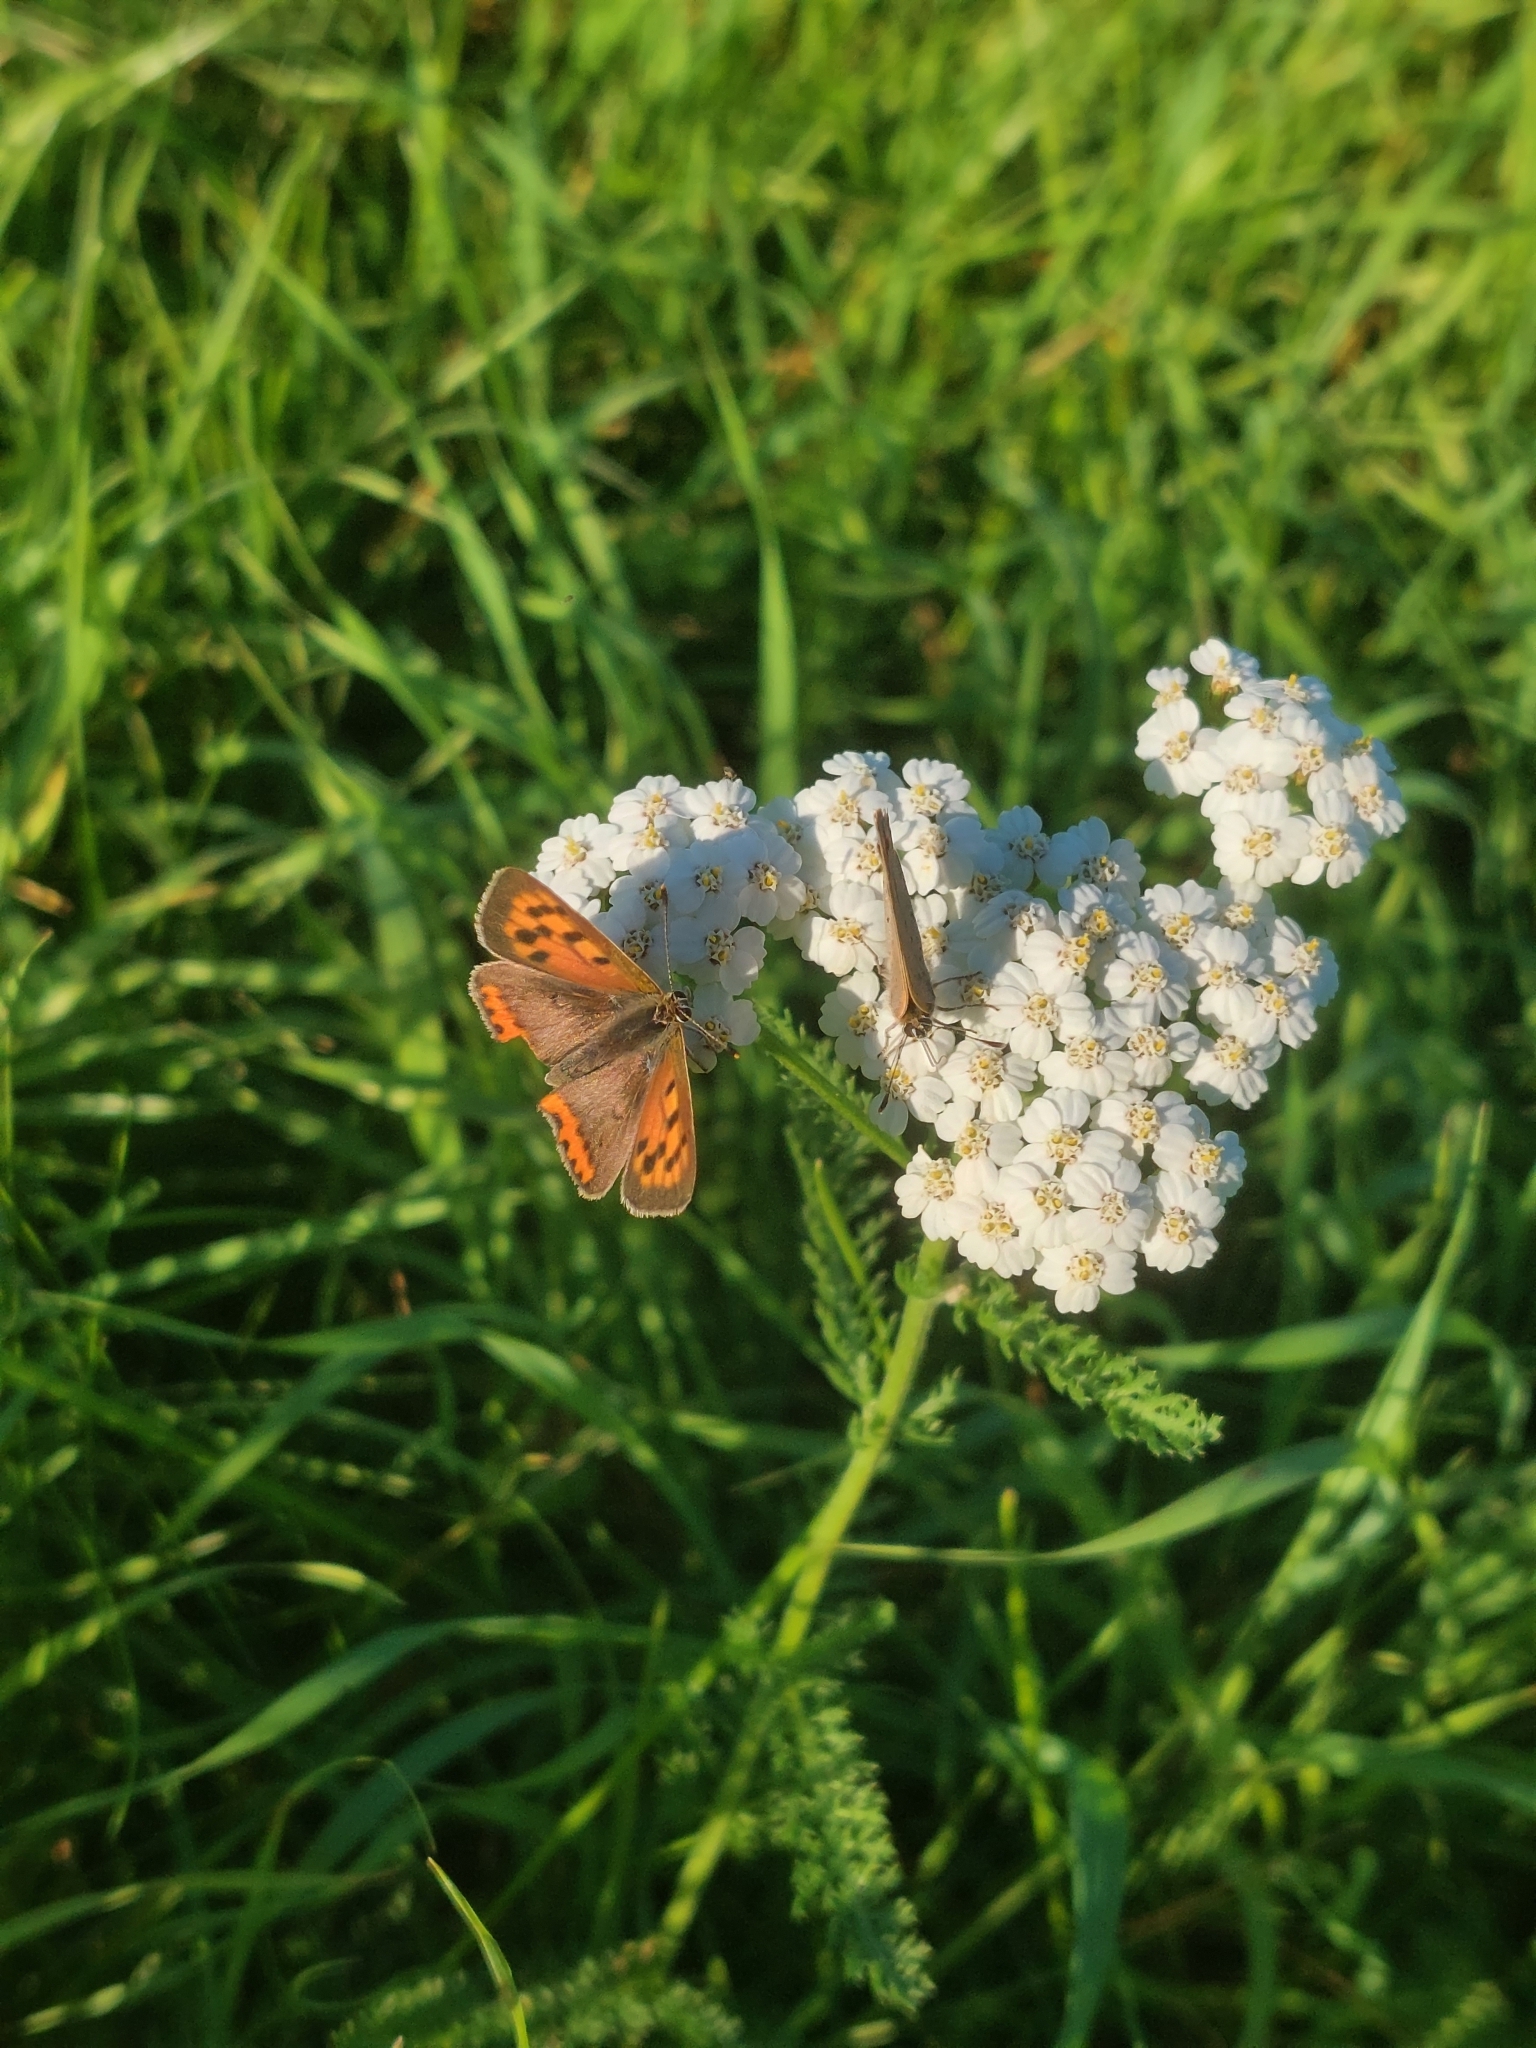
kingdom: Animalia
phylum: Arthropoda
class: Insecta
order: Lepidoptera
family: Lycaenidae
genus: Lycaena
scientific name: Lycaena phlaeas
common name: Small copper
